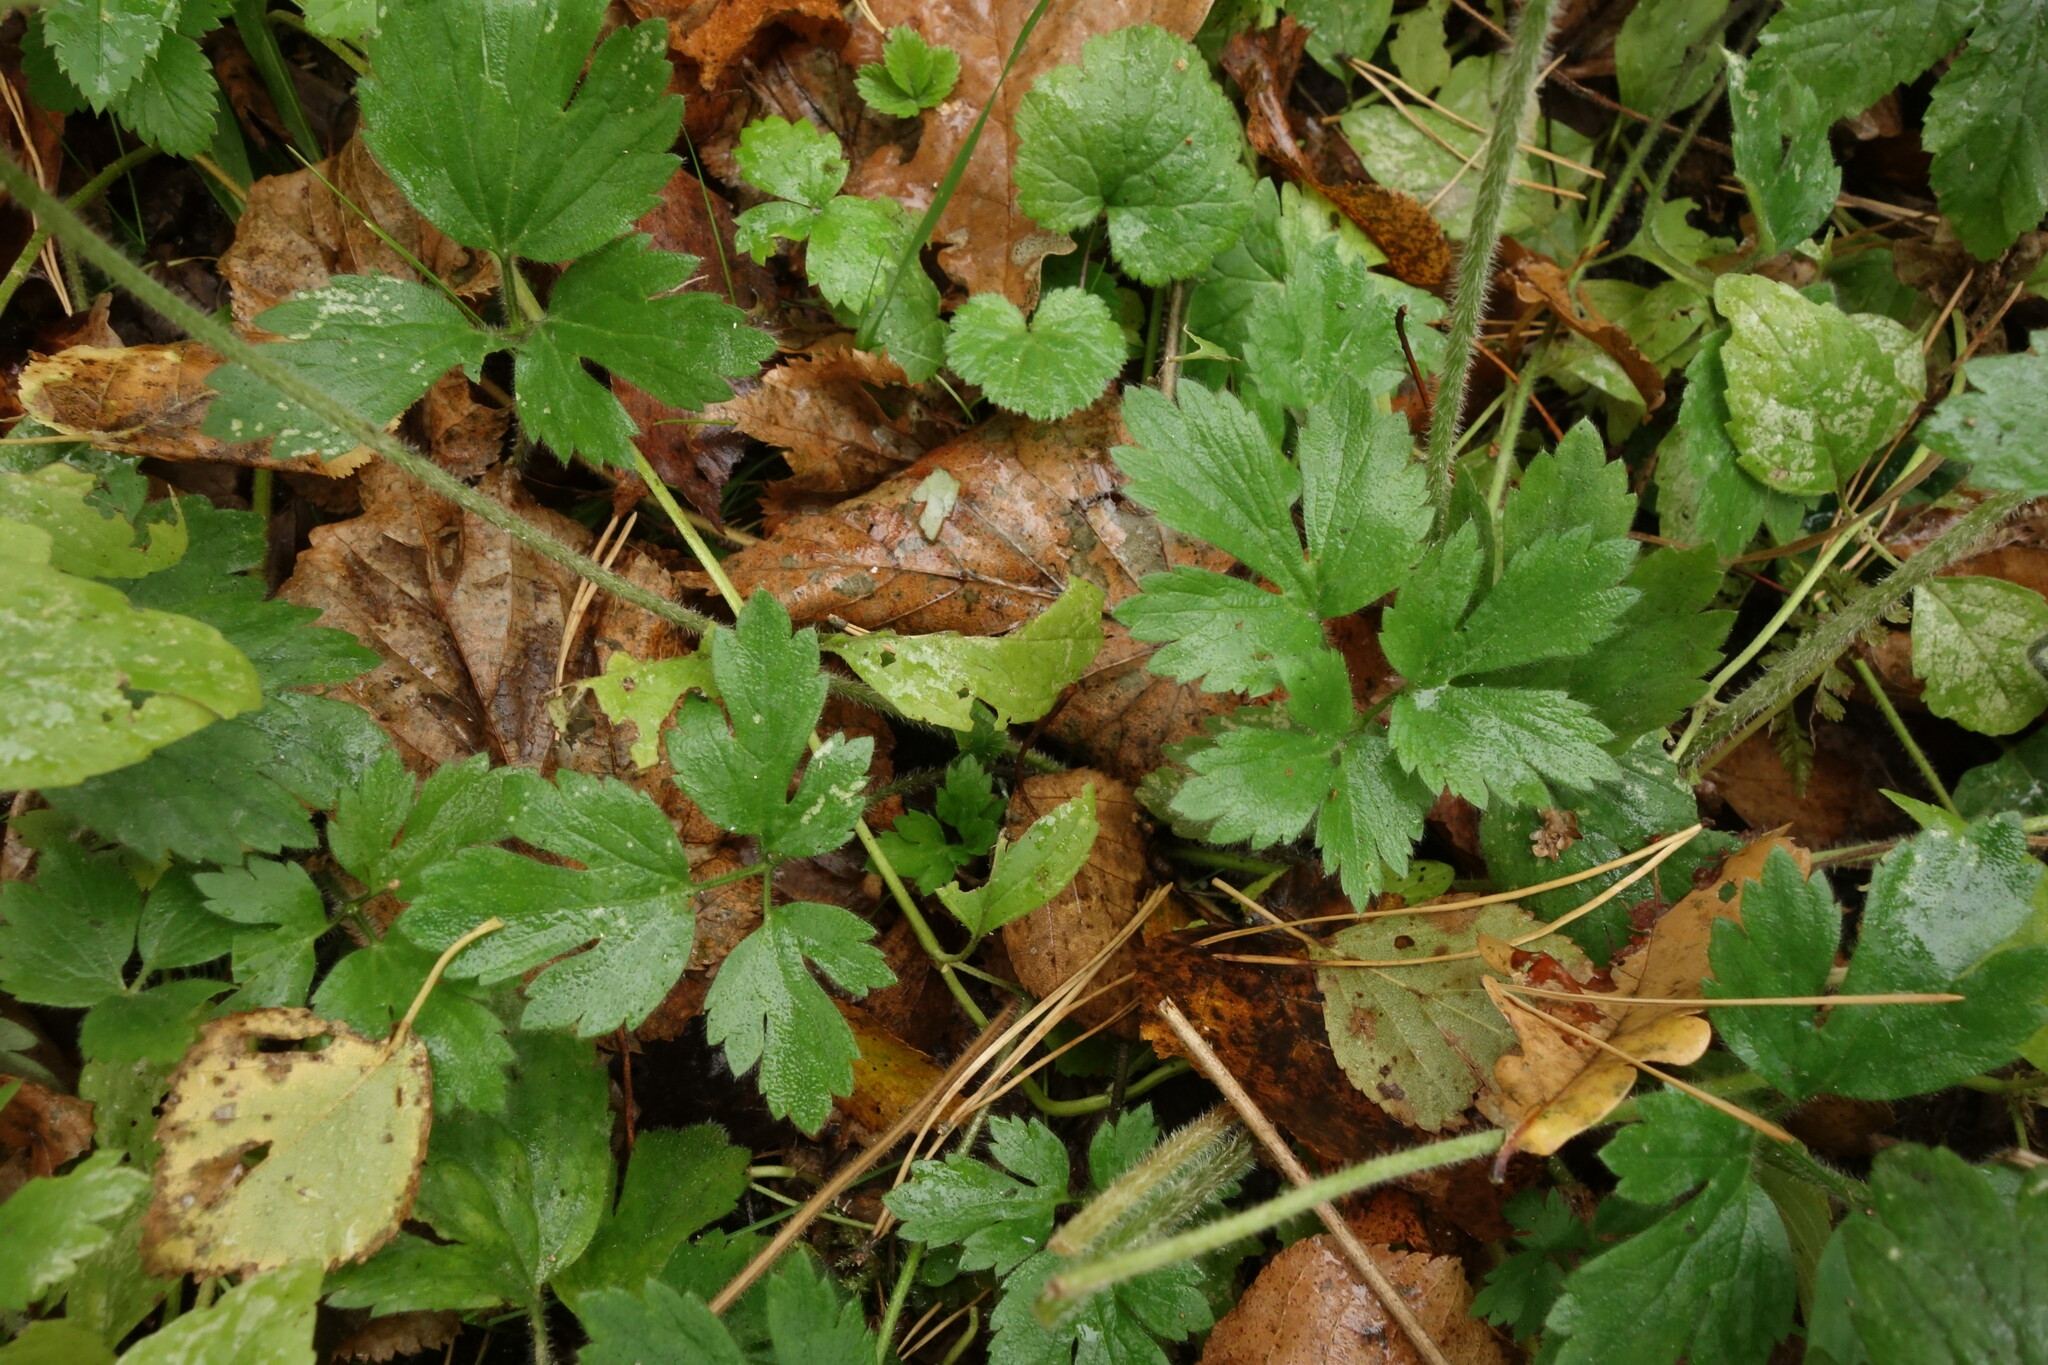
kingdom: Plantae
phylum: Tracheophyta
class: Magnoliopsida
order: Ranunculales
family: Ranunculaceae
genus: Ranunculus
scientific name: Ranunculus repens
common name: Creeping buttercup
